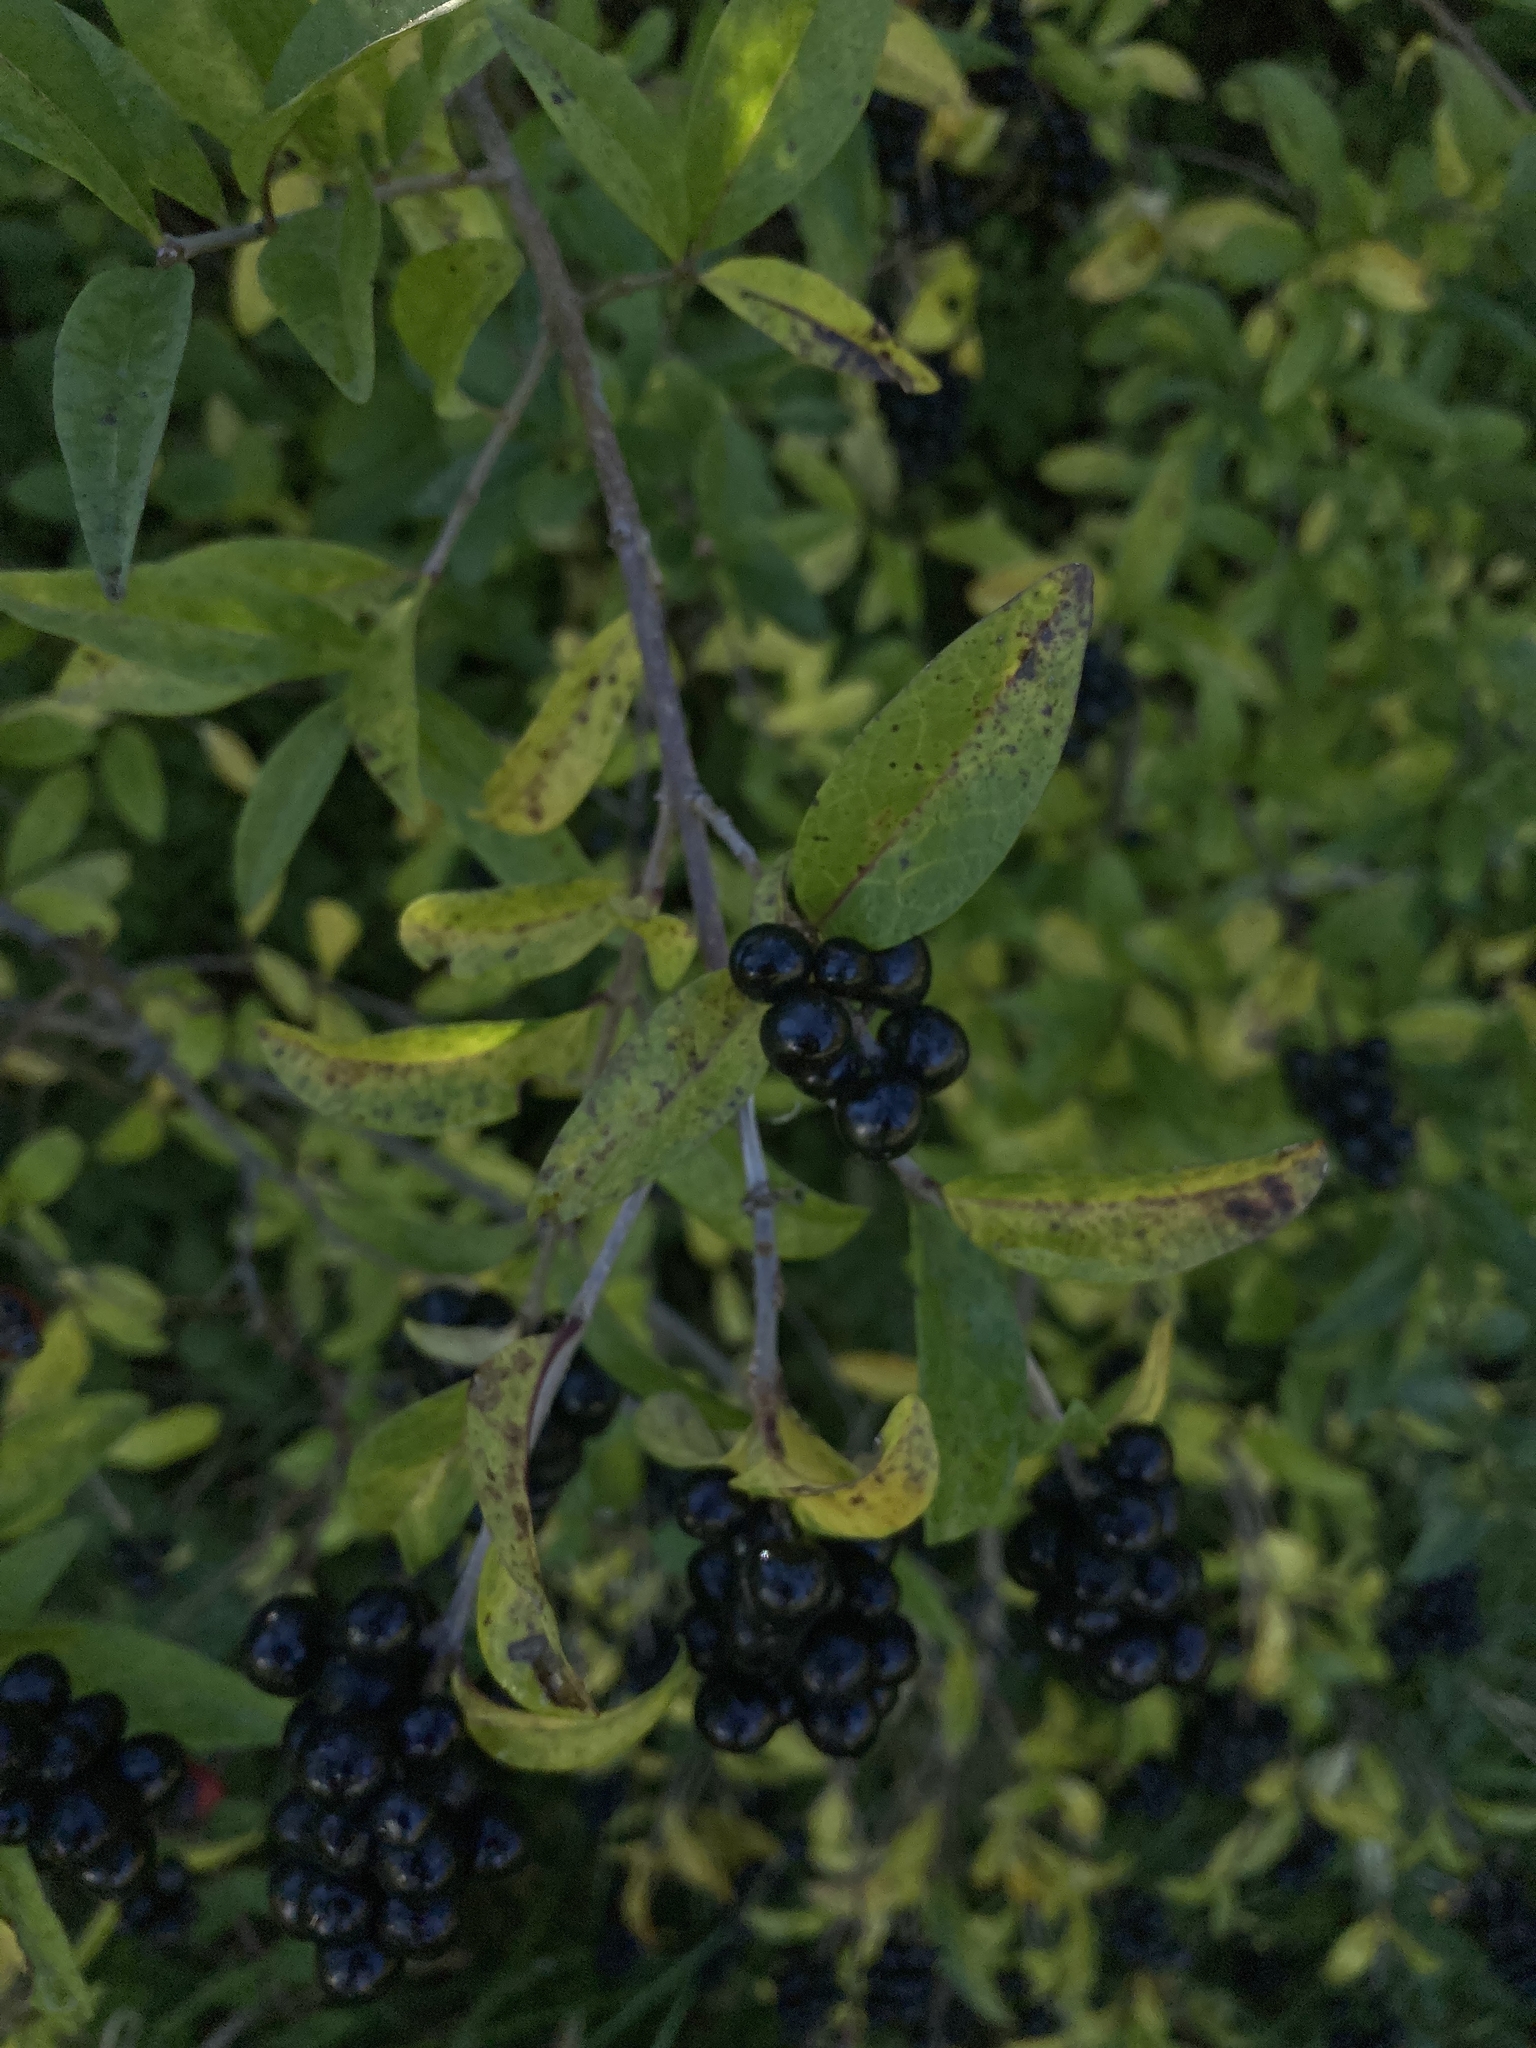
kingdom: Plantae
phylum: Tracheophyta
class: Magnoliopsida
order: Lamiales
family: Oleaceae
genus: Ligustrum
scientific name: Ligustrum vulgare
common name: Wild privet
